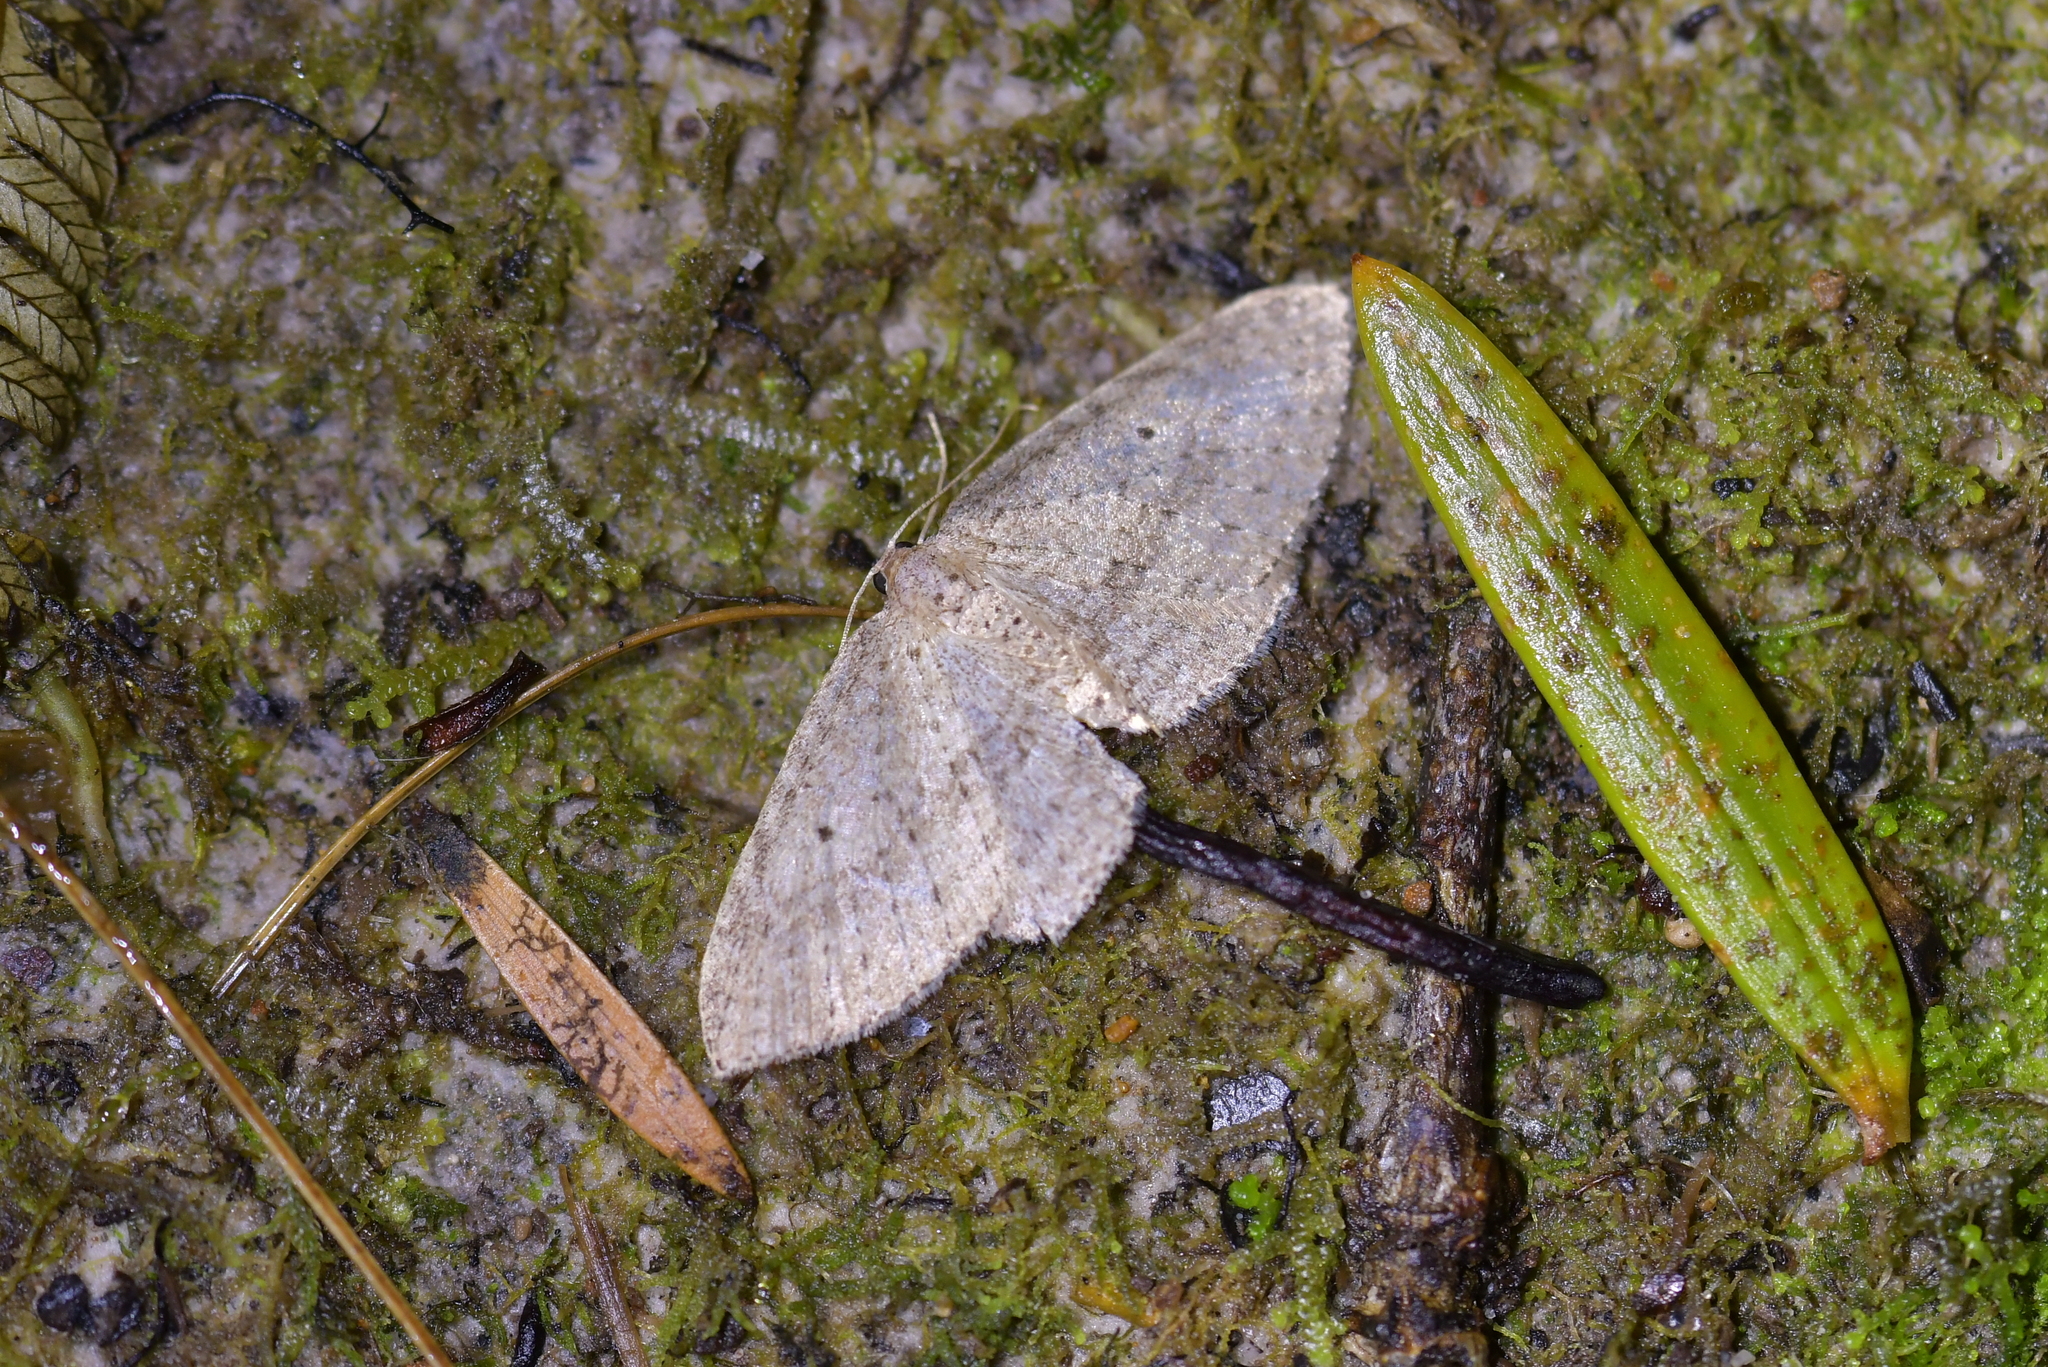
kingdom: Animalia
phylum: Arthropoda
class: Insecta
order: Lepidoptera
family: Geometridae
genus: Poecilasthena
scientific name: Poecilasthena schistaria
